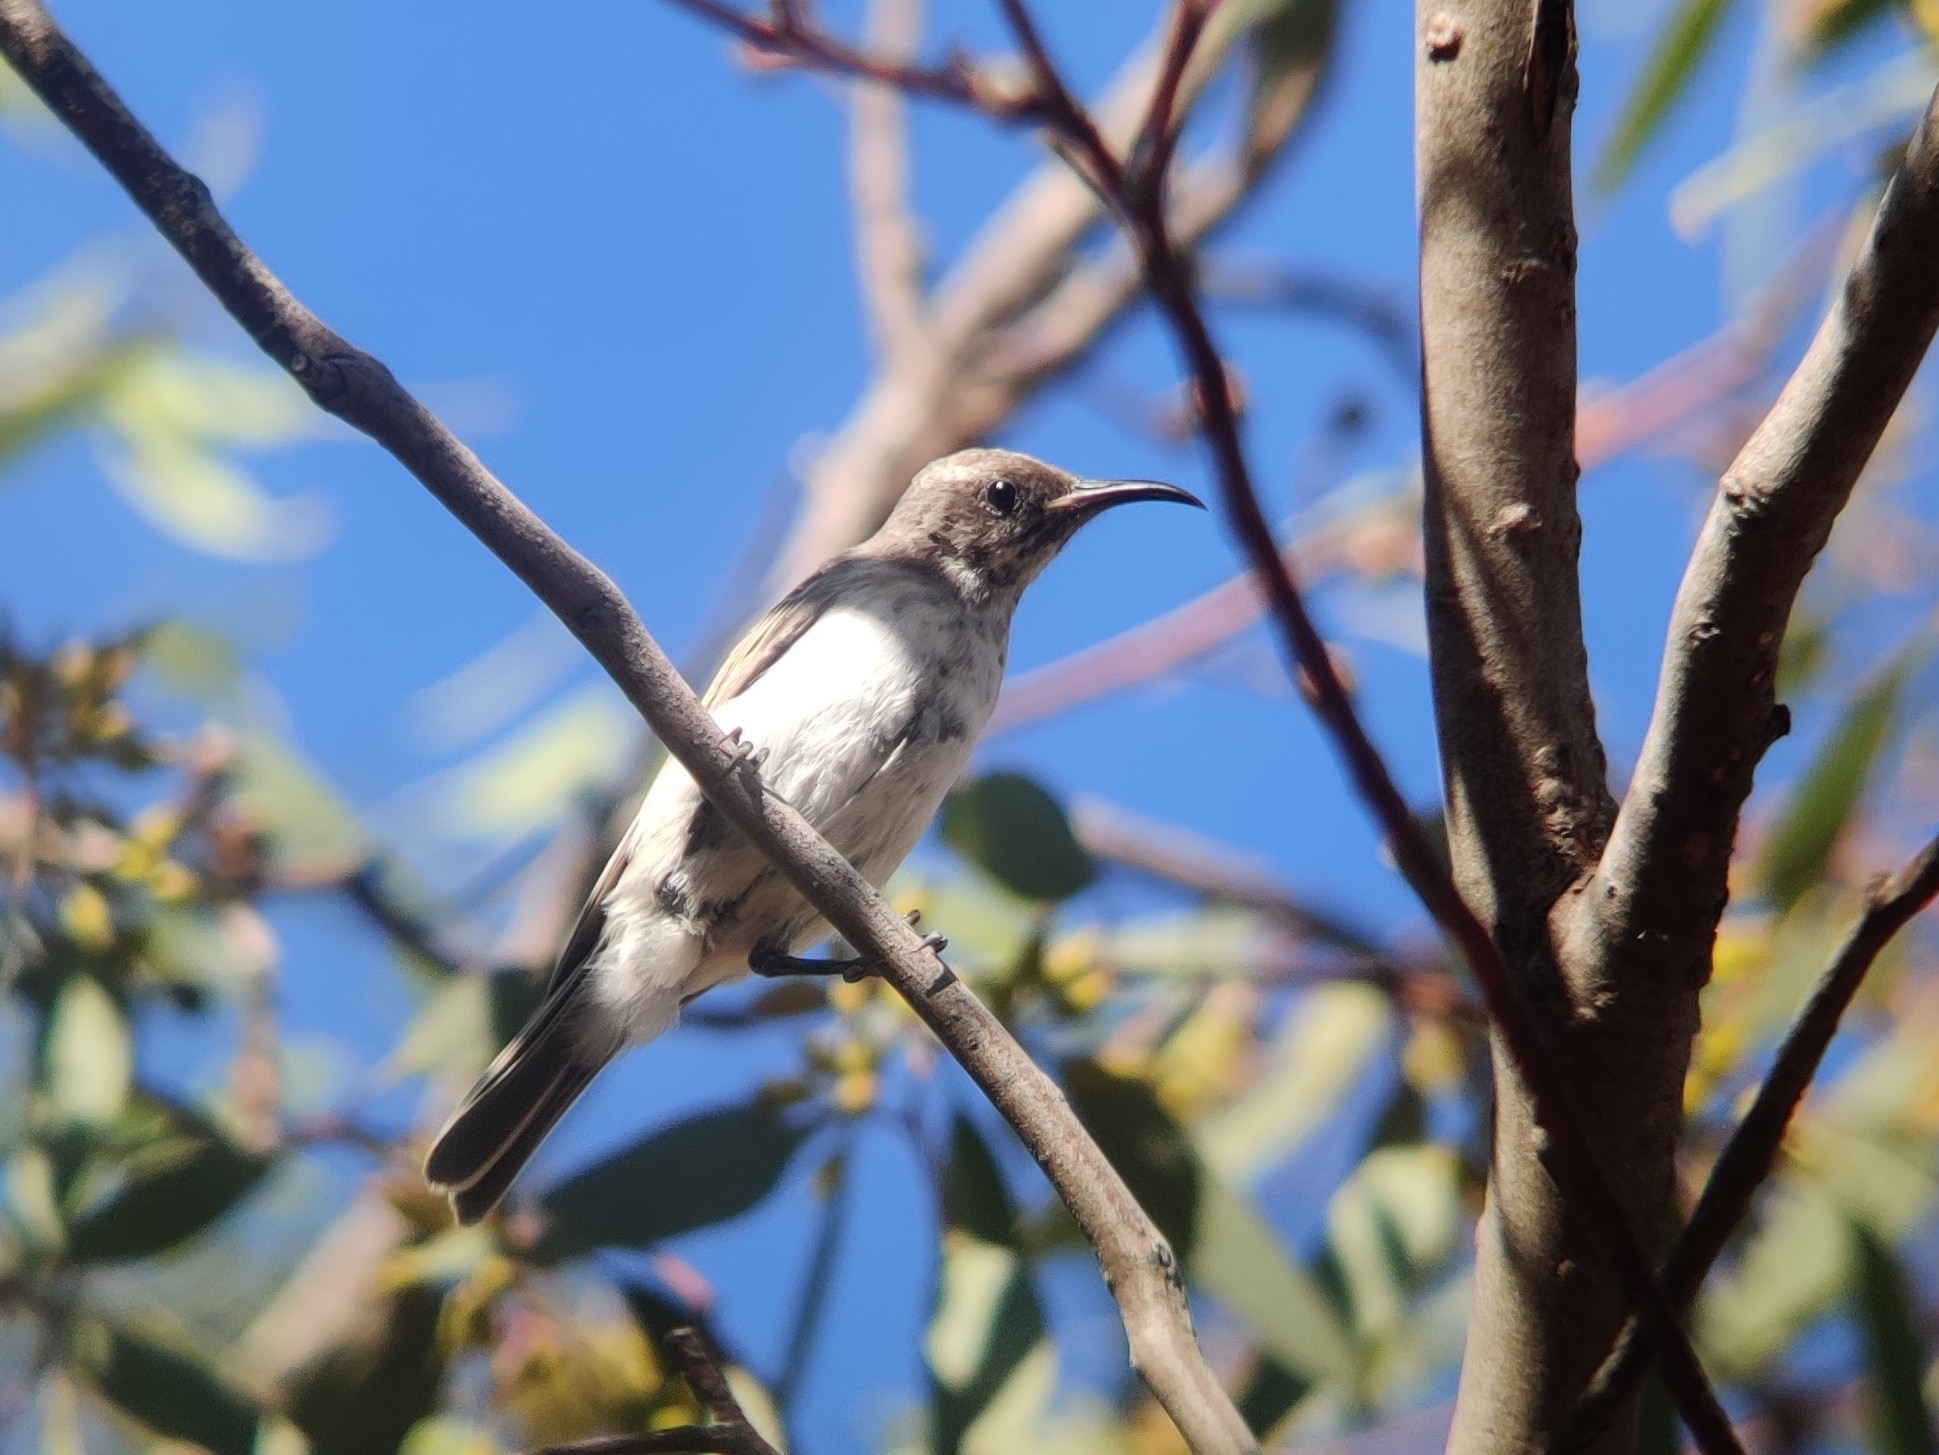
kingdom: Animalia
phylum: Chordata
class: Aves
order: Passeriformes
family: Meliphagidae
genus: Sugomel
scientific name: Sugomel niger
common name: Black honeyeater
